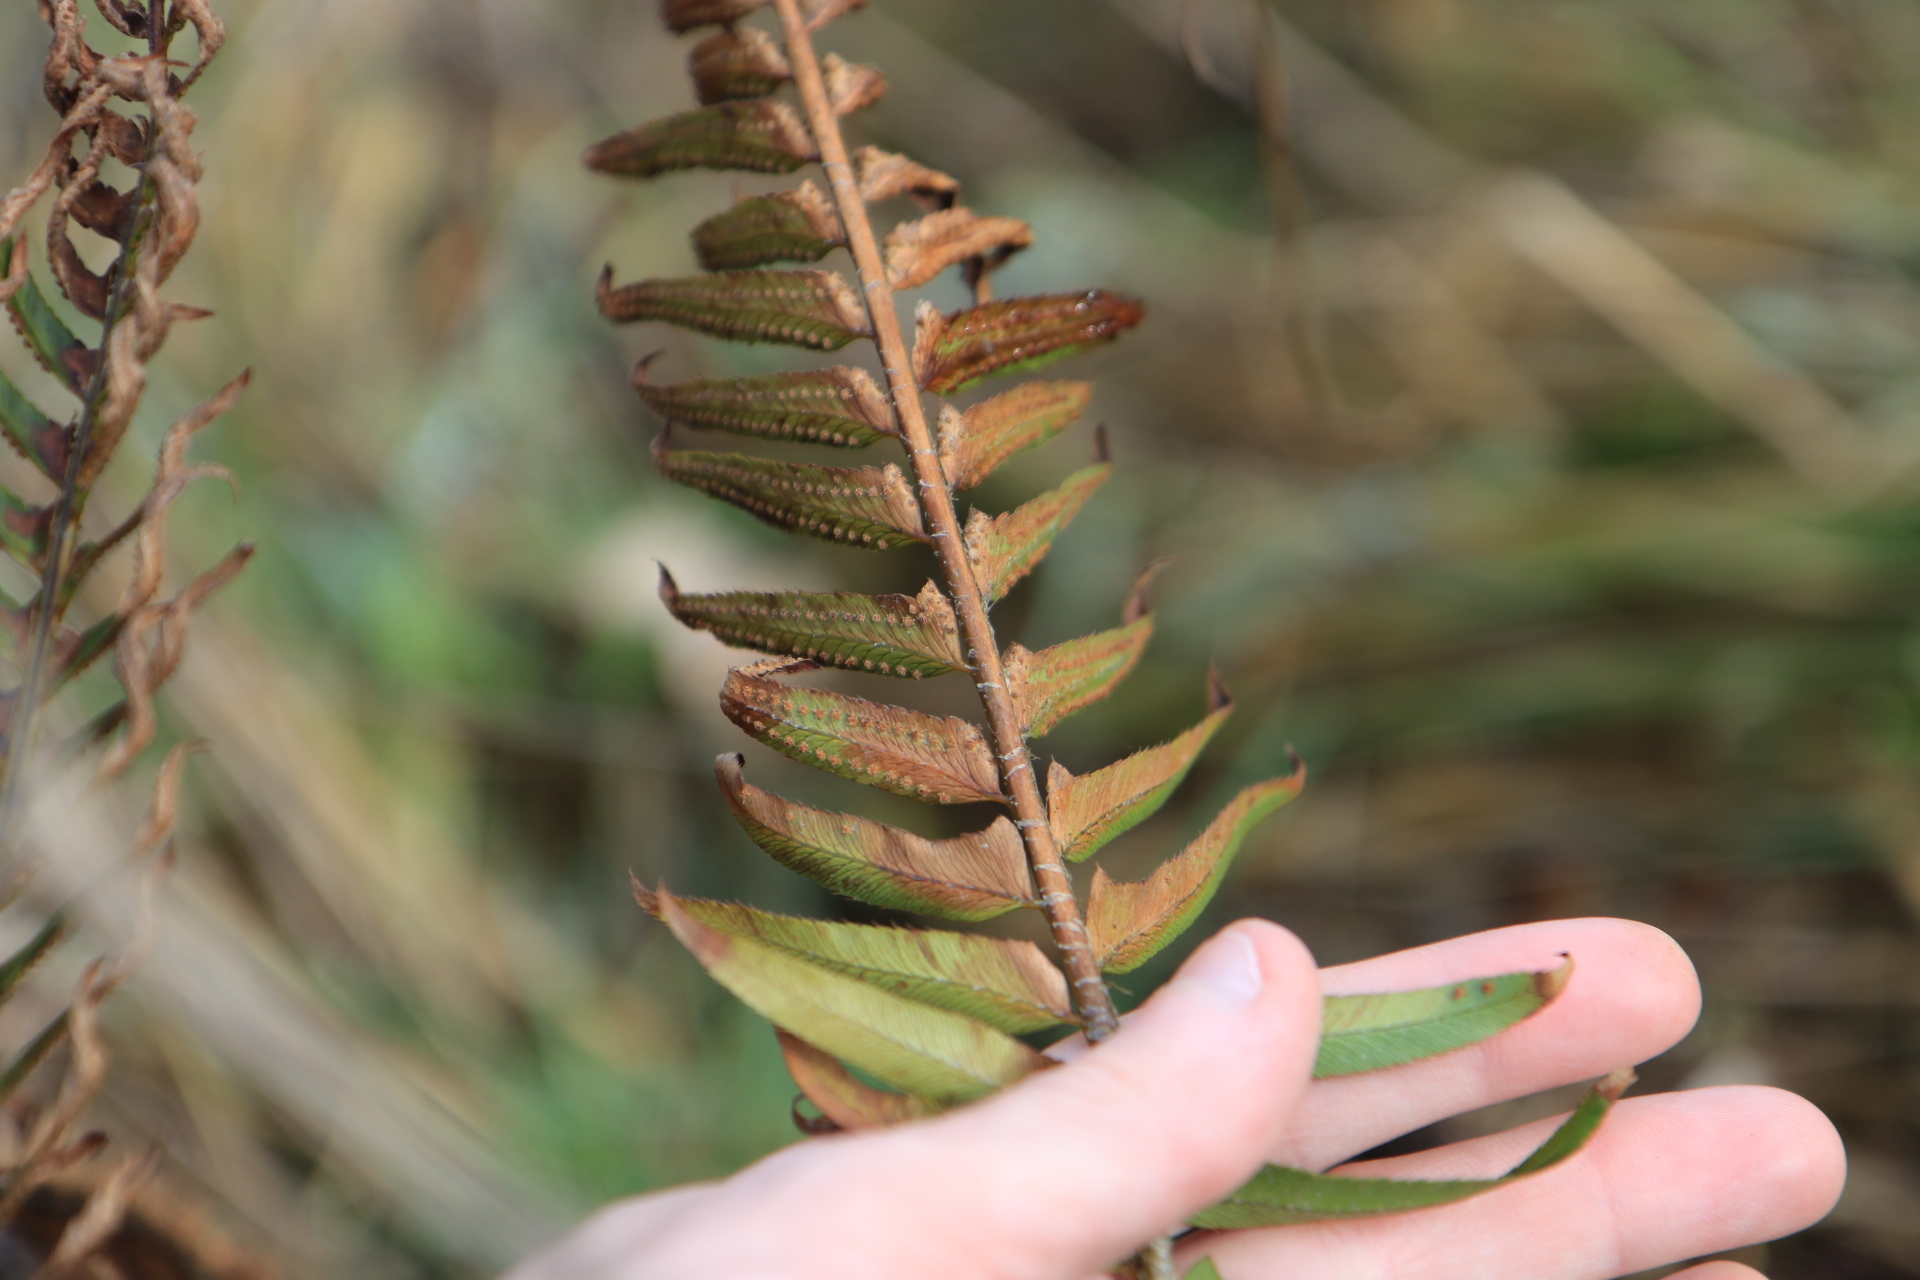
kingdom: Plantae
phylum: Tracheophyta
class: Polypodiopsida
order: Polypodiales
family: Dryopteridaceae
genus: Polystichum
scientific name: Polystichum munitum
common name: Western sword-fern
